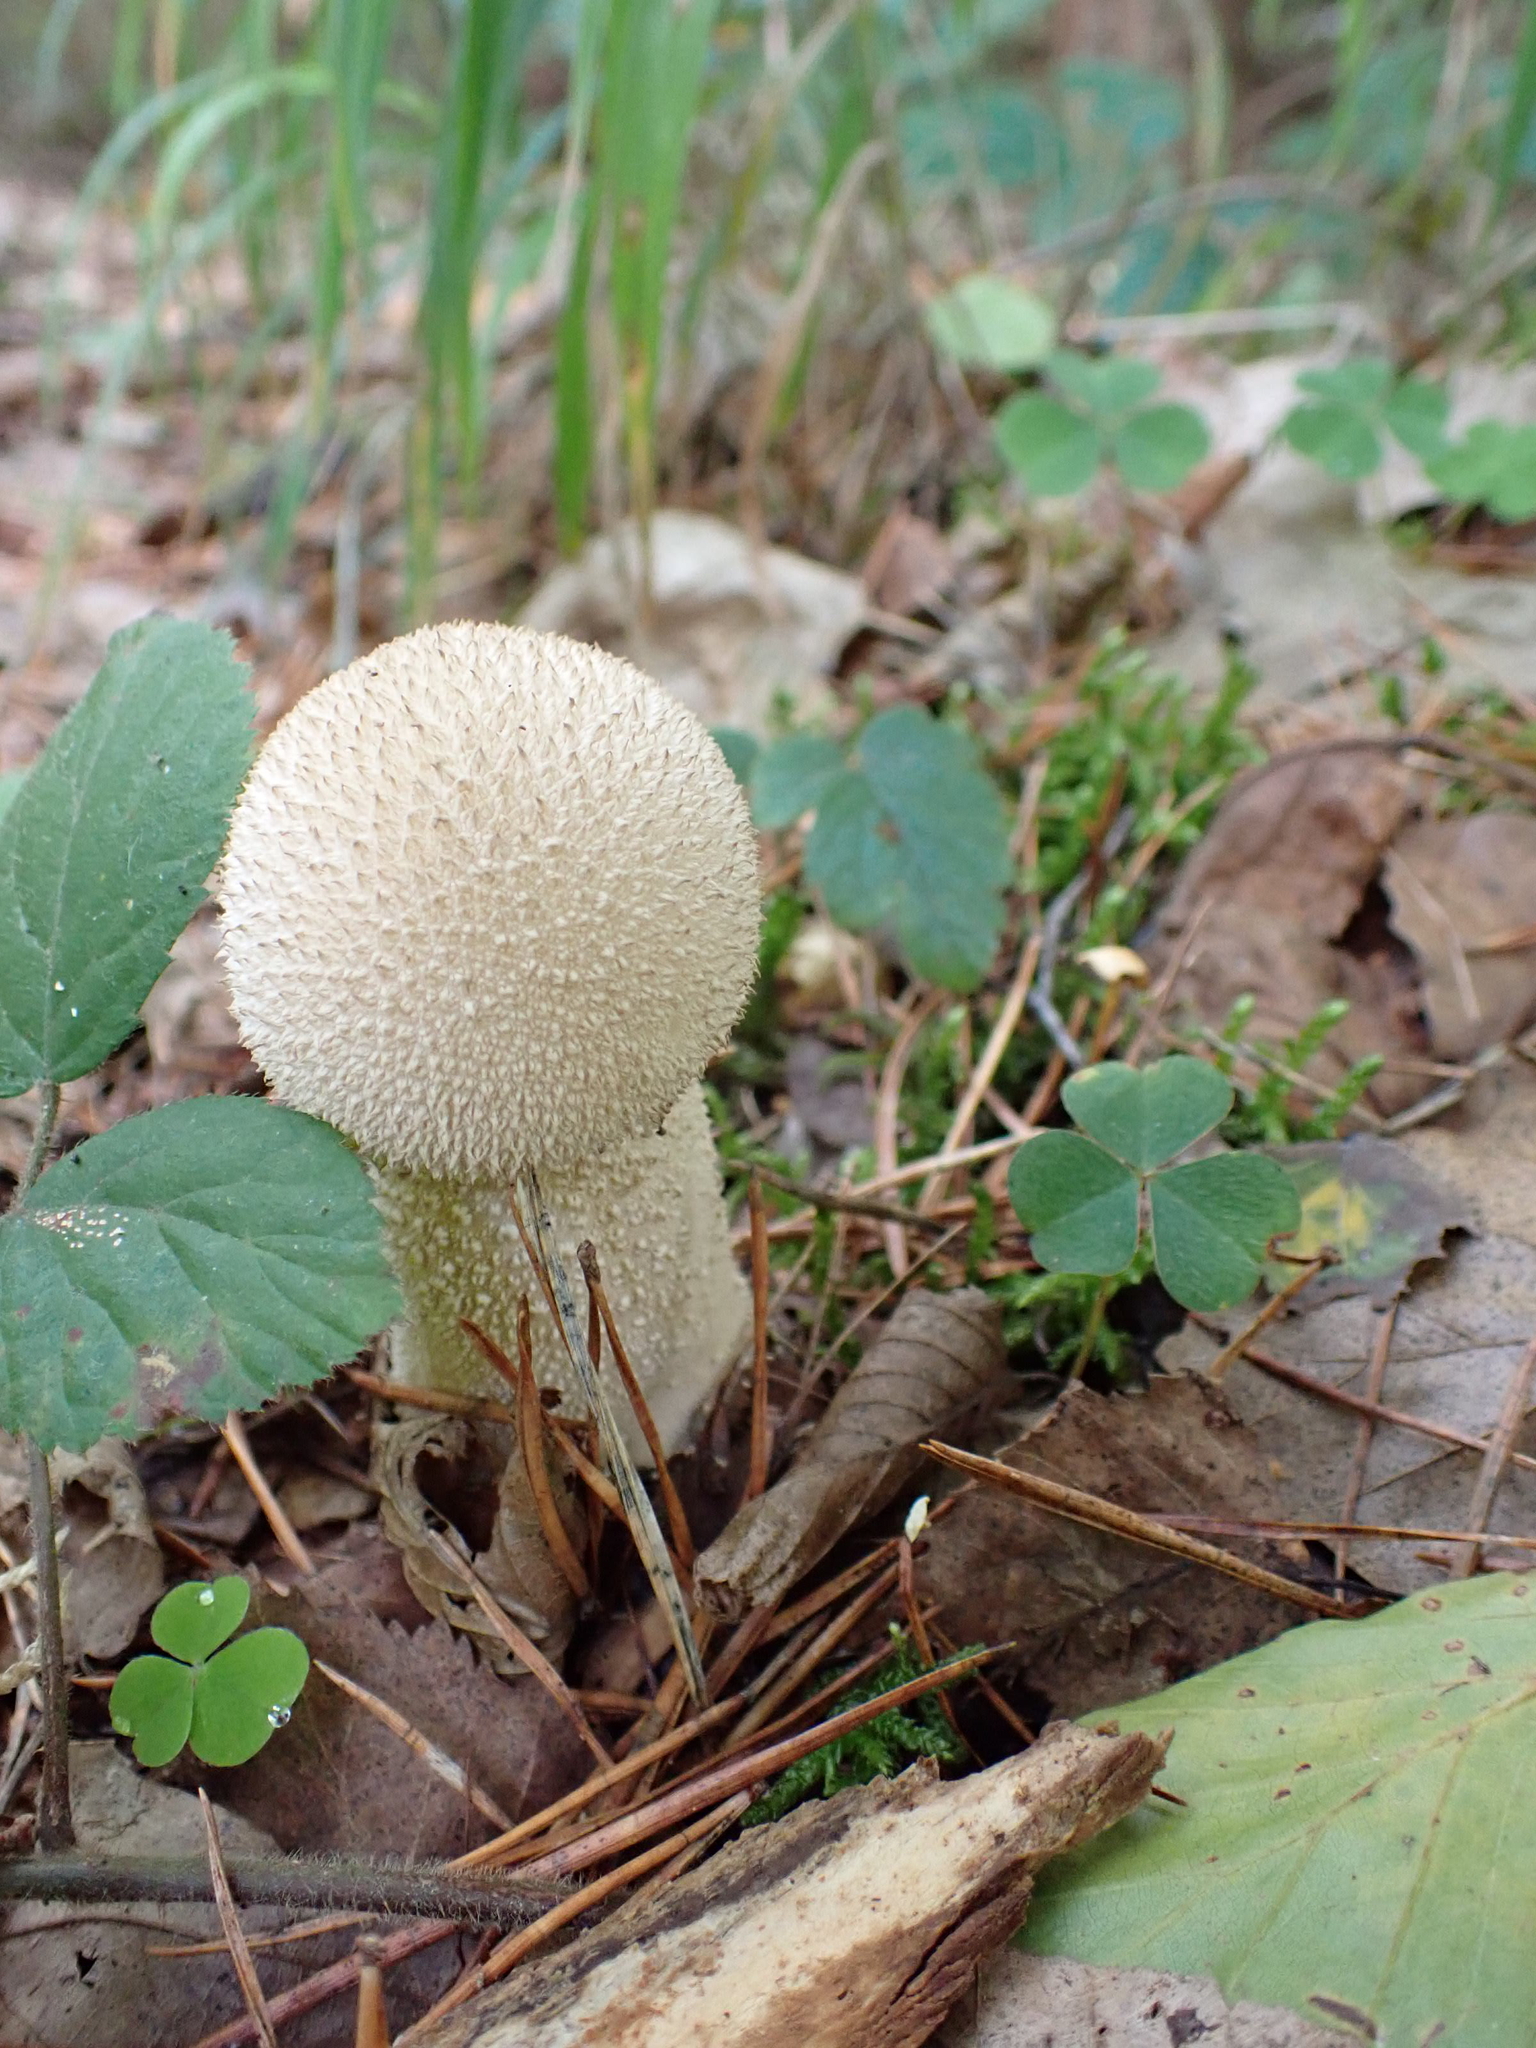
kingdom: Fungi
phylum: Basidiomycota
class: Agaricomycetes
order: Agaricales
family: Lycoperdaceae
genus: Lycoperdon
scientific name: Lycoperdon perlatum
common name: Common puffball
